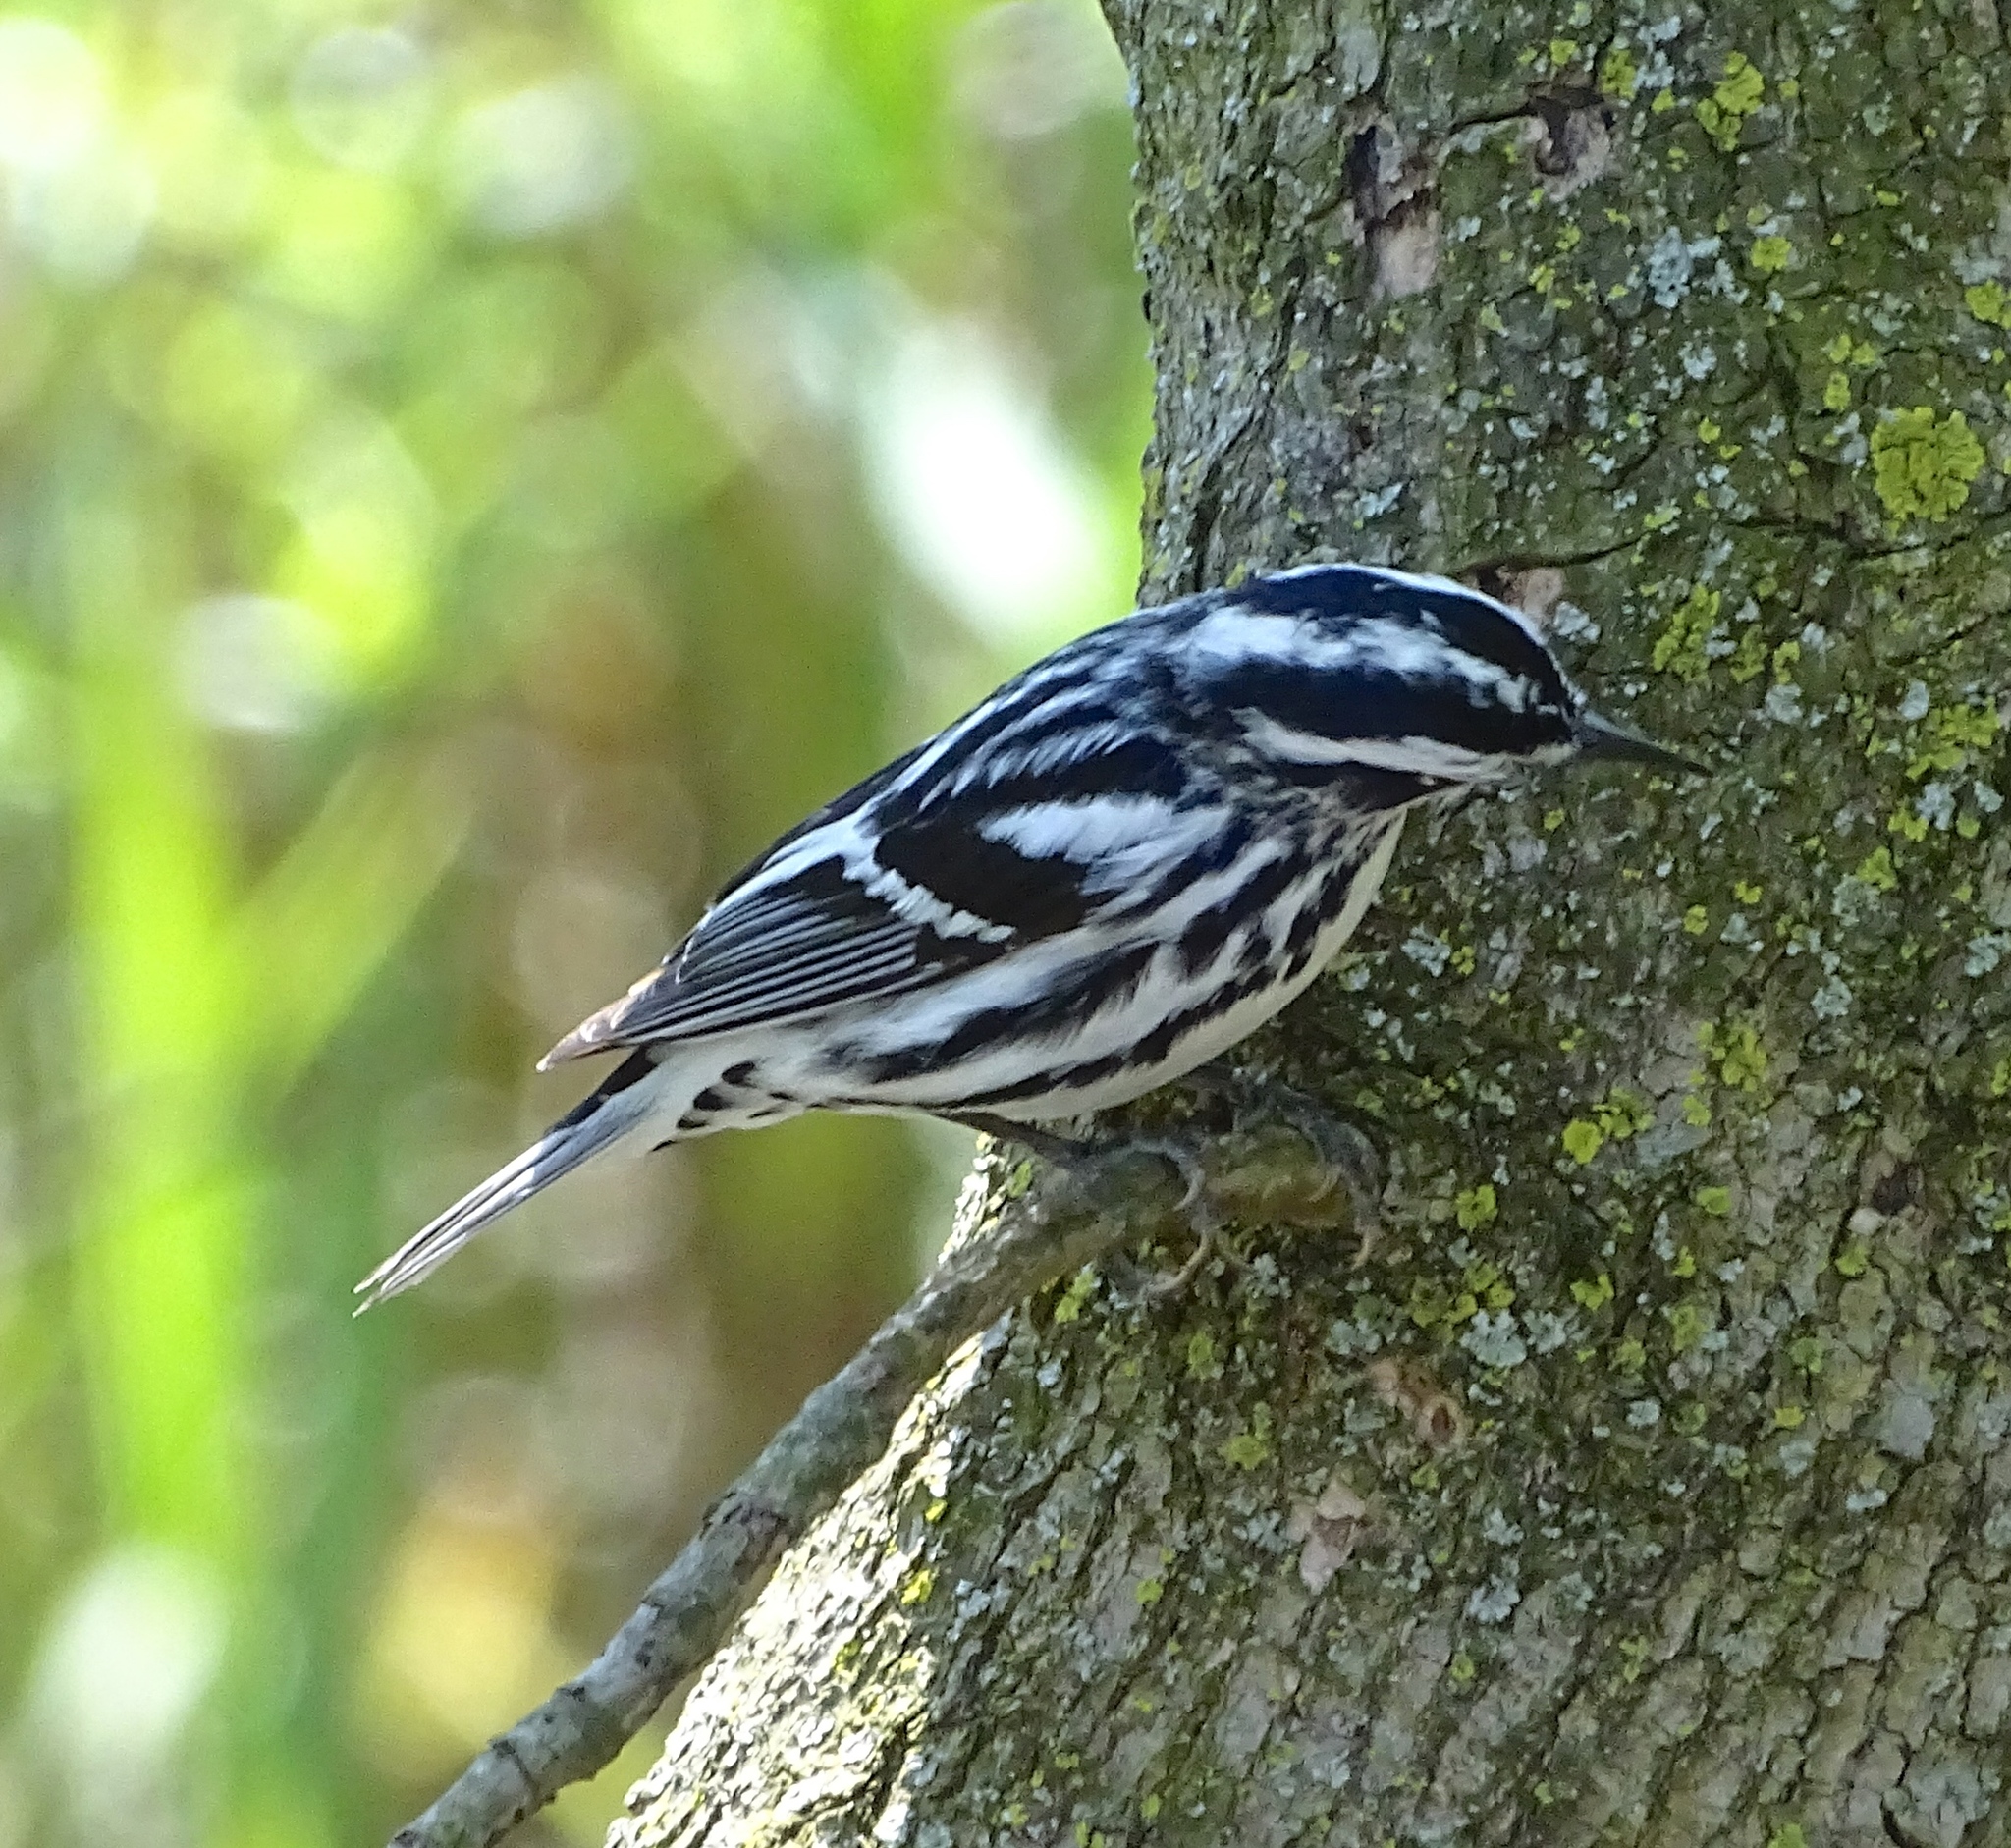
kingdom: Animalia
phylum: Chordata
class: Aves
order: Passeriformes
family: Parulidae
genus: Mniotilta
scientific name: Mniotilta varia
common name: Black-and-white warbler
